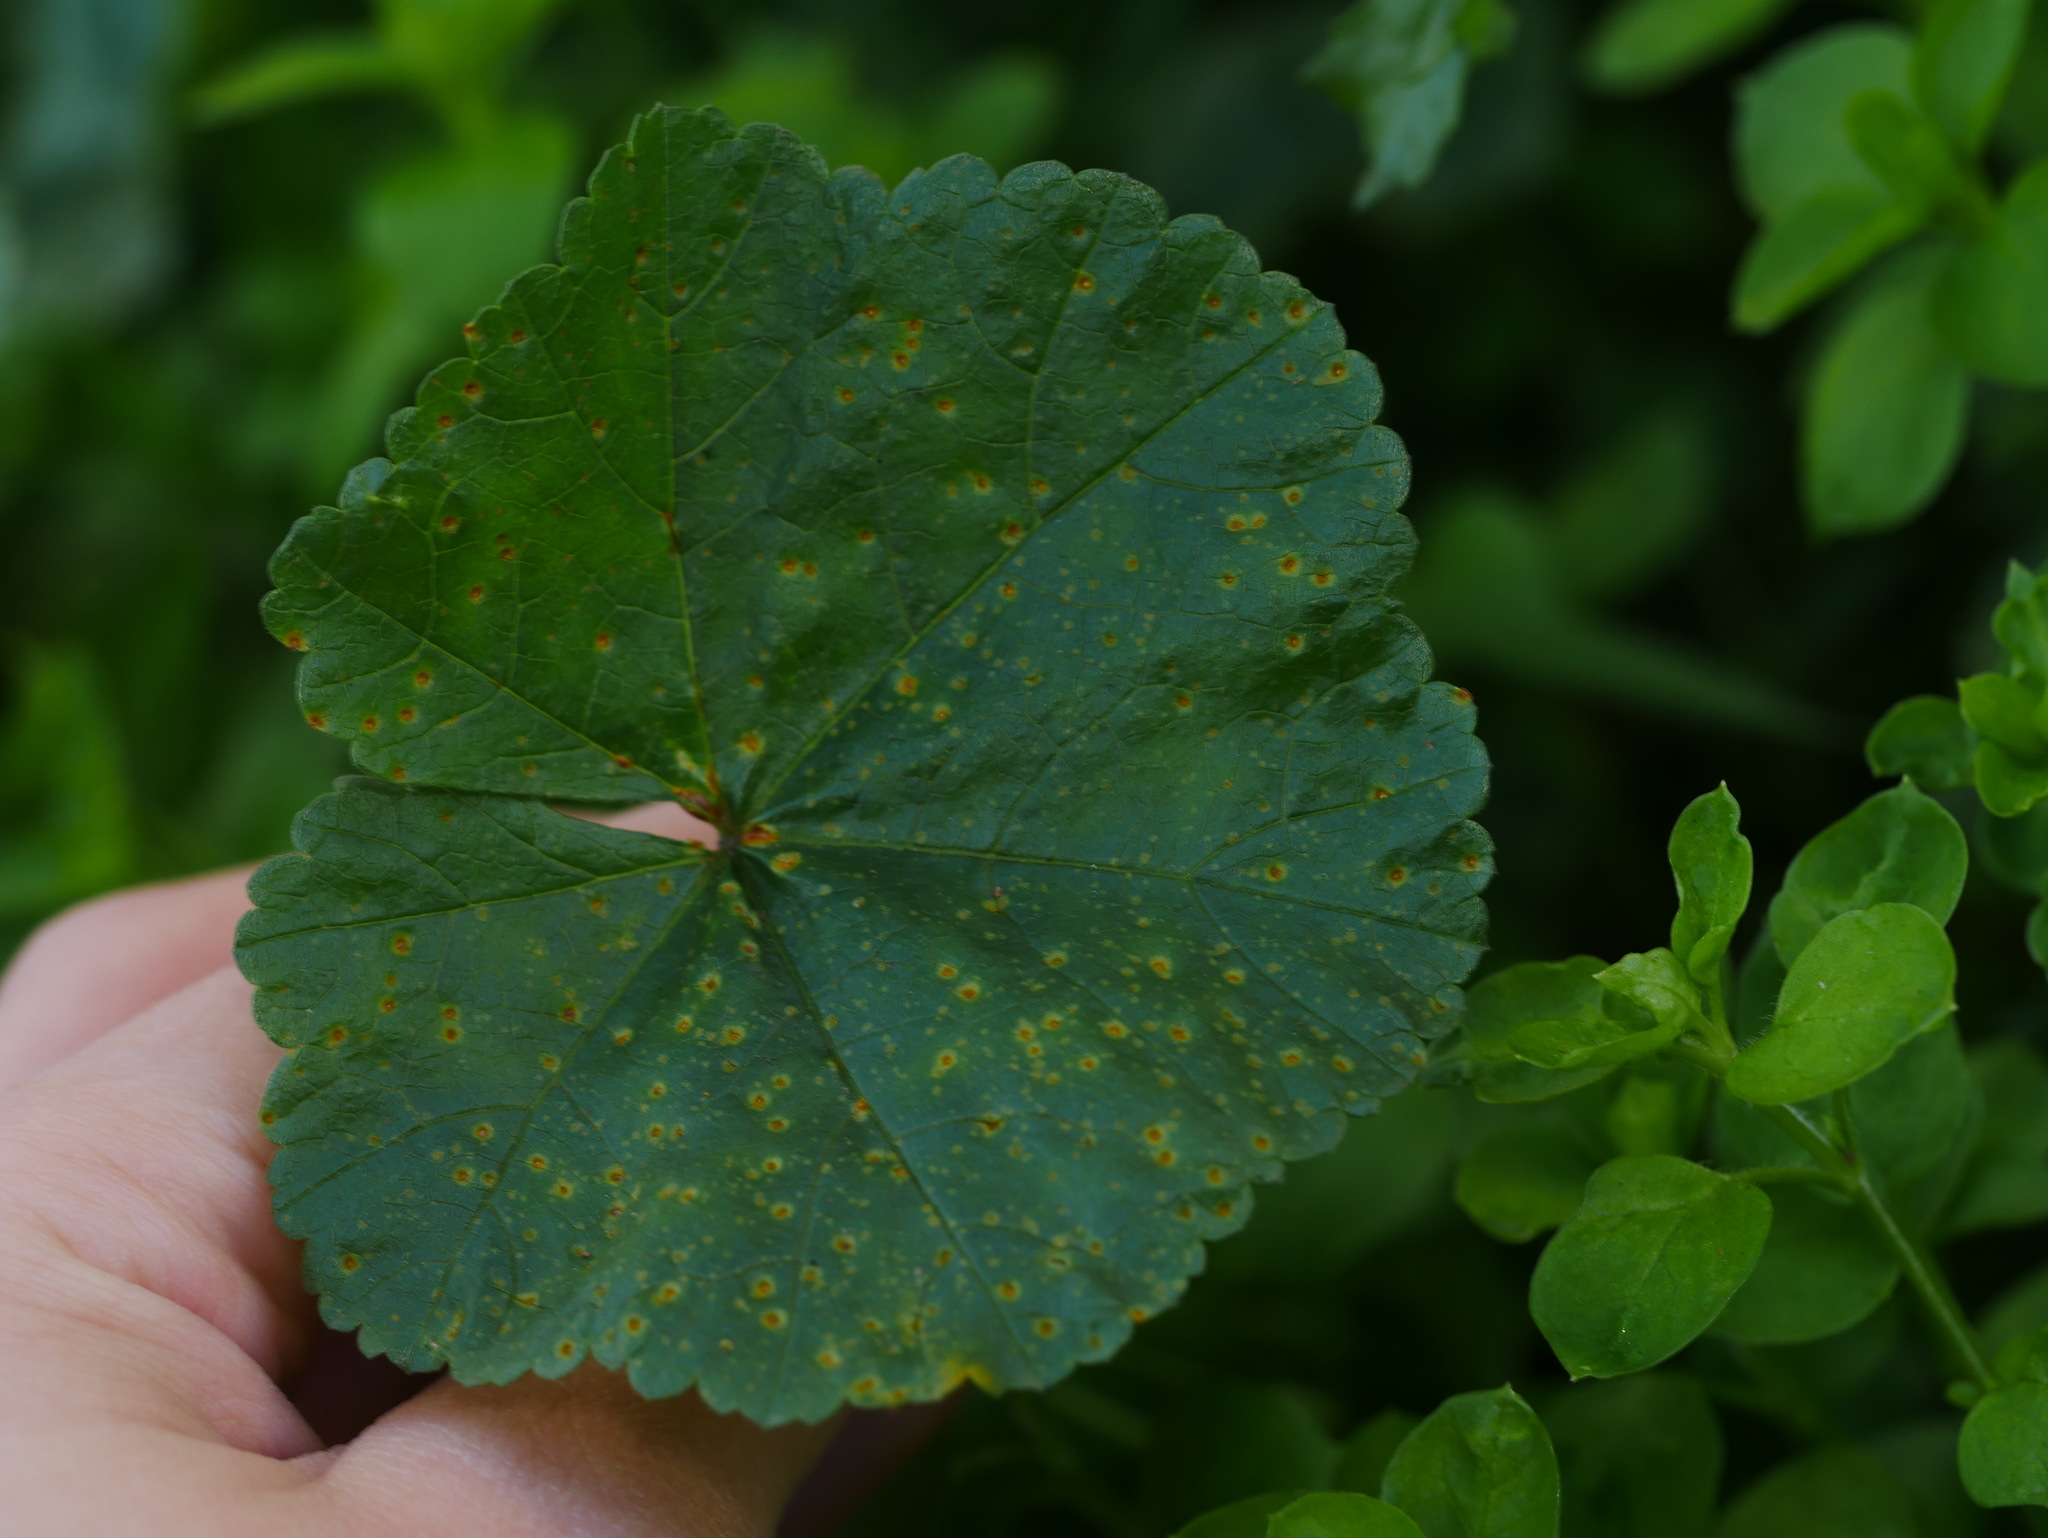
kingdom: Fungi
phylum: Basidiomycota
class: Pucciniomycetes
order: Pucciniales
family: Pucciniaceae
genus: Puccinia
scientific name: Puccinia malvacearum
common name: Hollyhock rust
